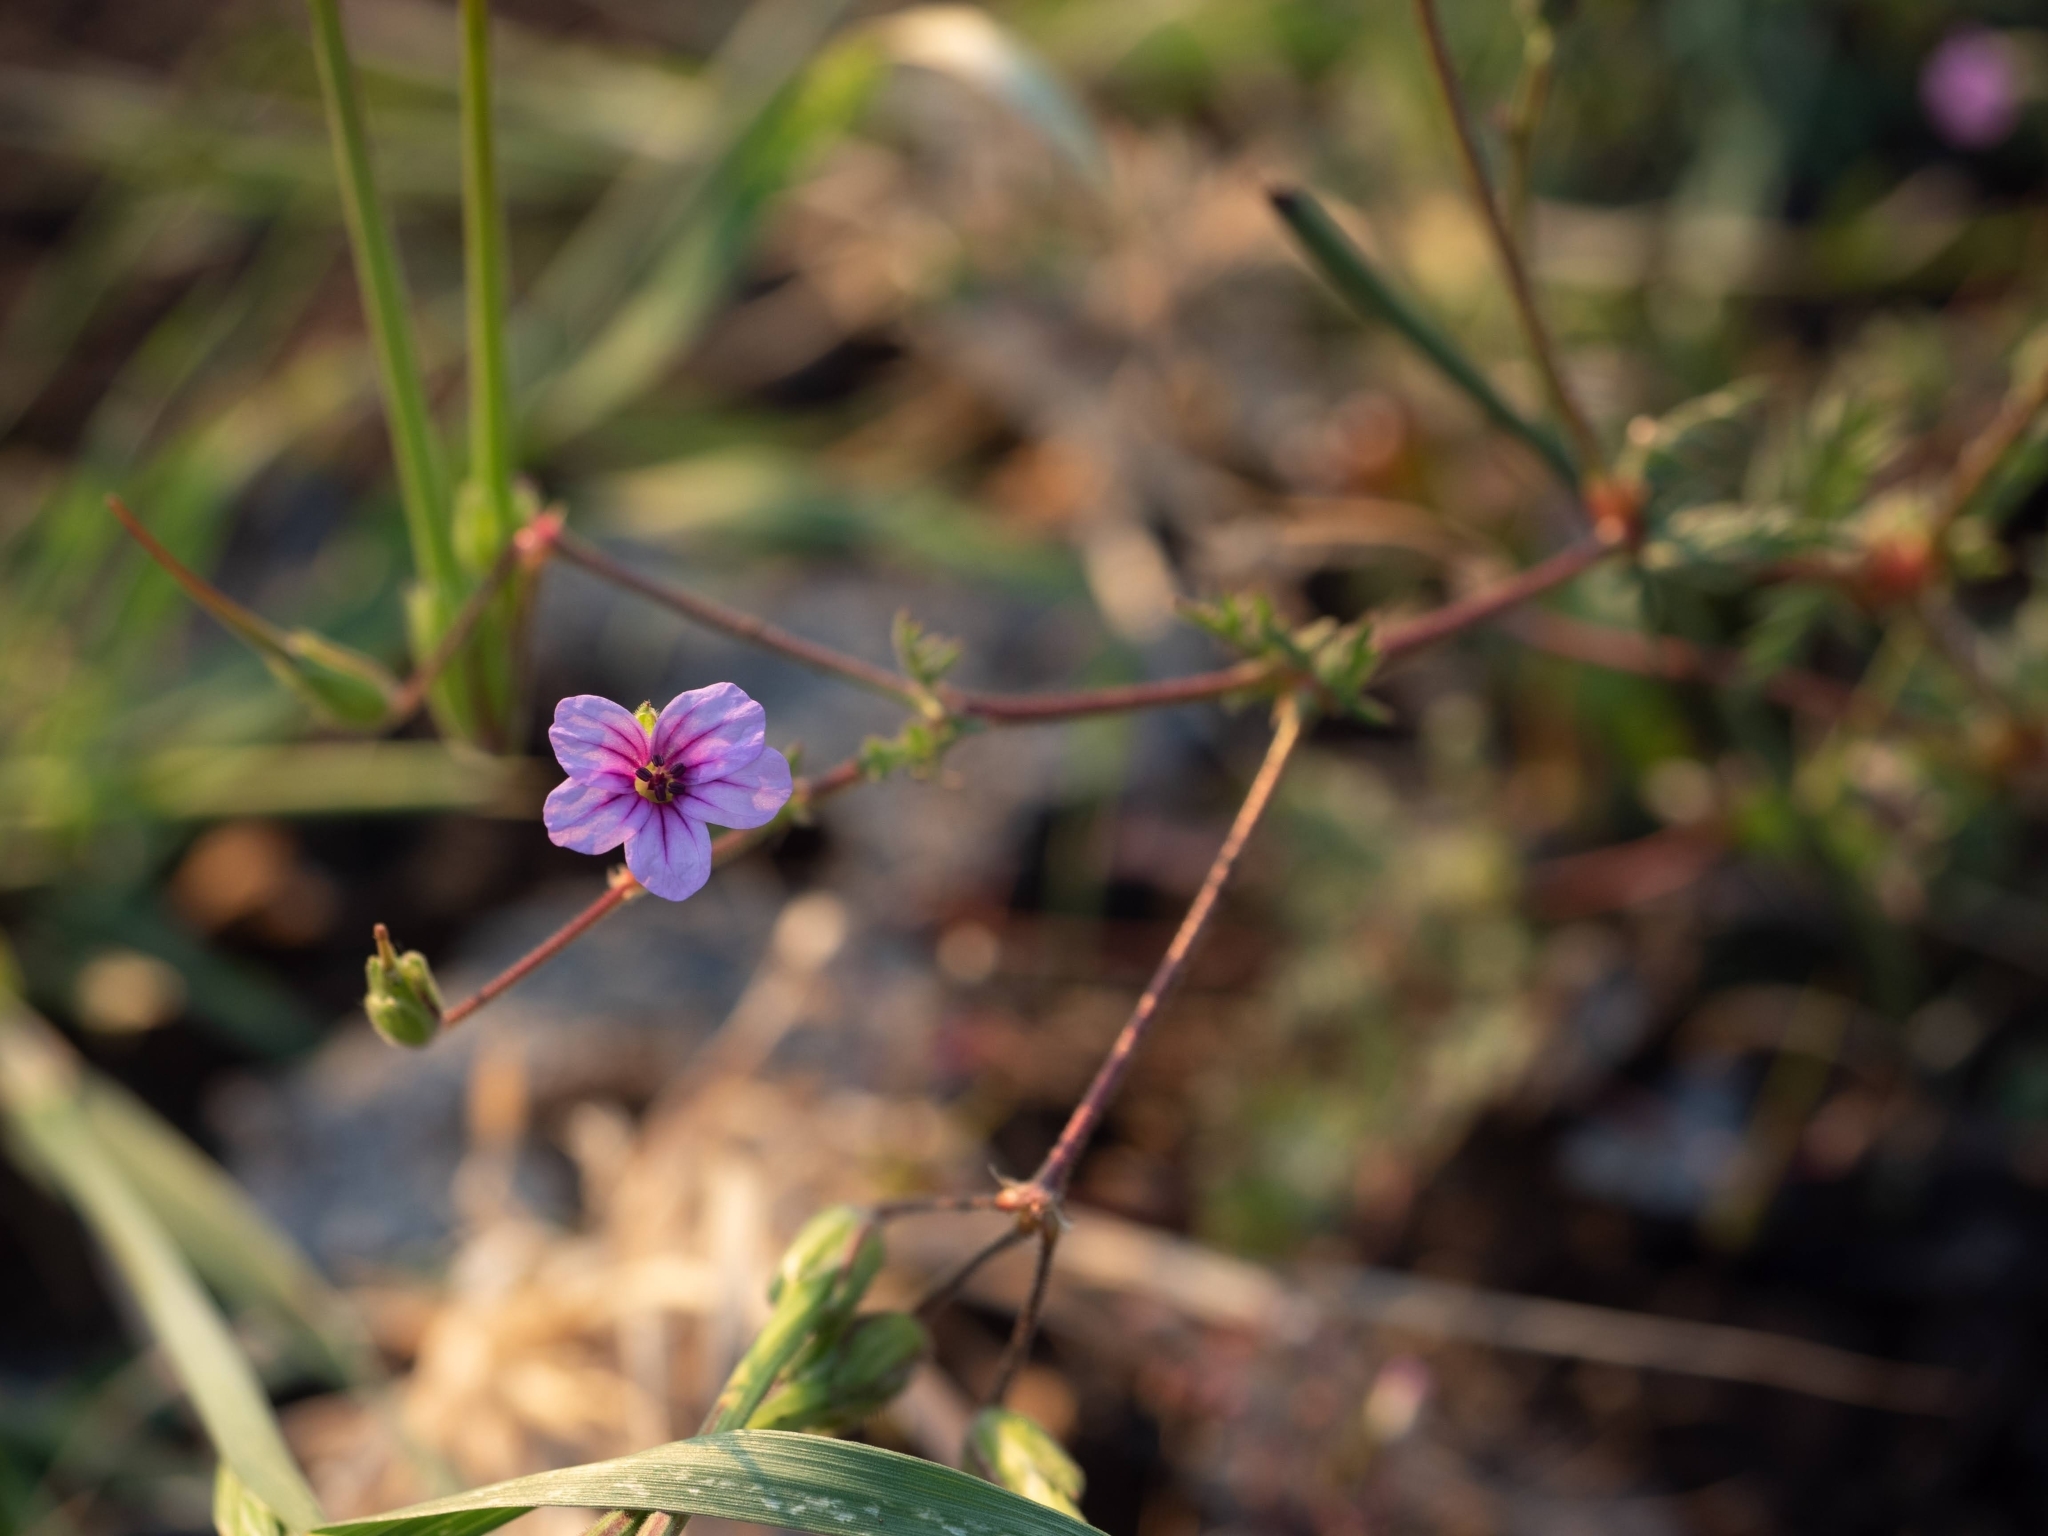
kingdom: Plantae
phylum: Tracheophyta
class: Magnoliopsida
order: Geraniales
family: Geraniaceae
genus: Erodium
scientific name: Erodium botrys
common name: Mediterranean stork's-bill
